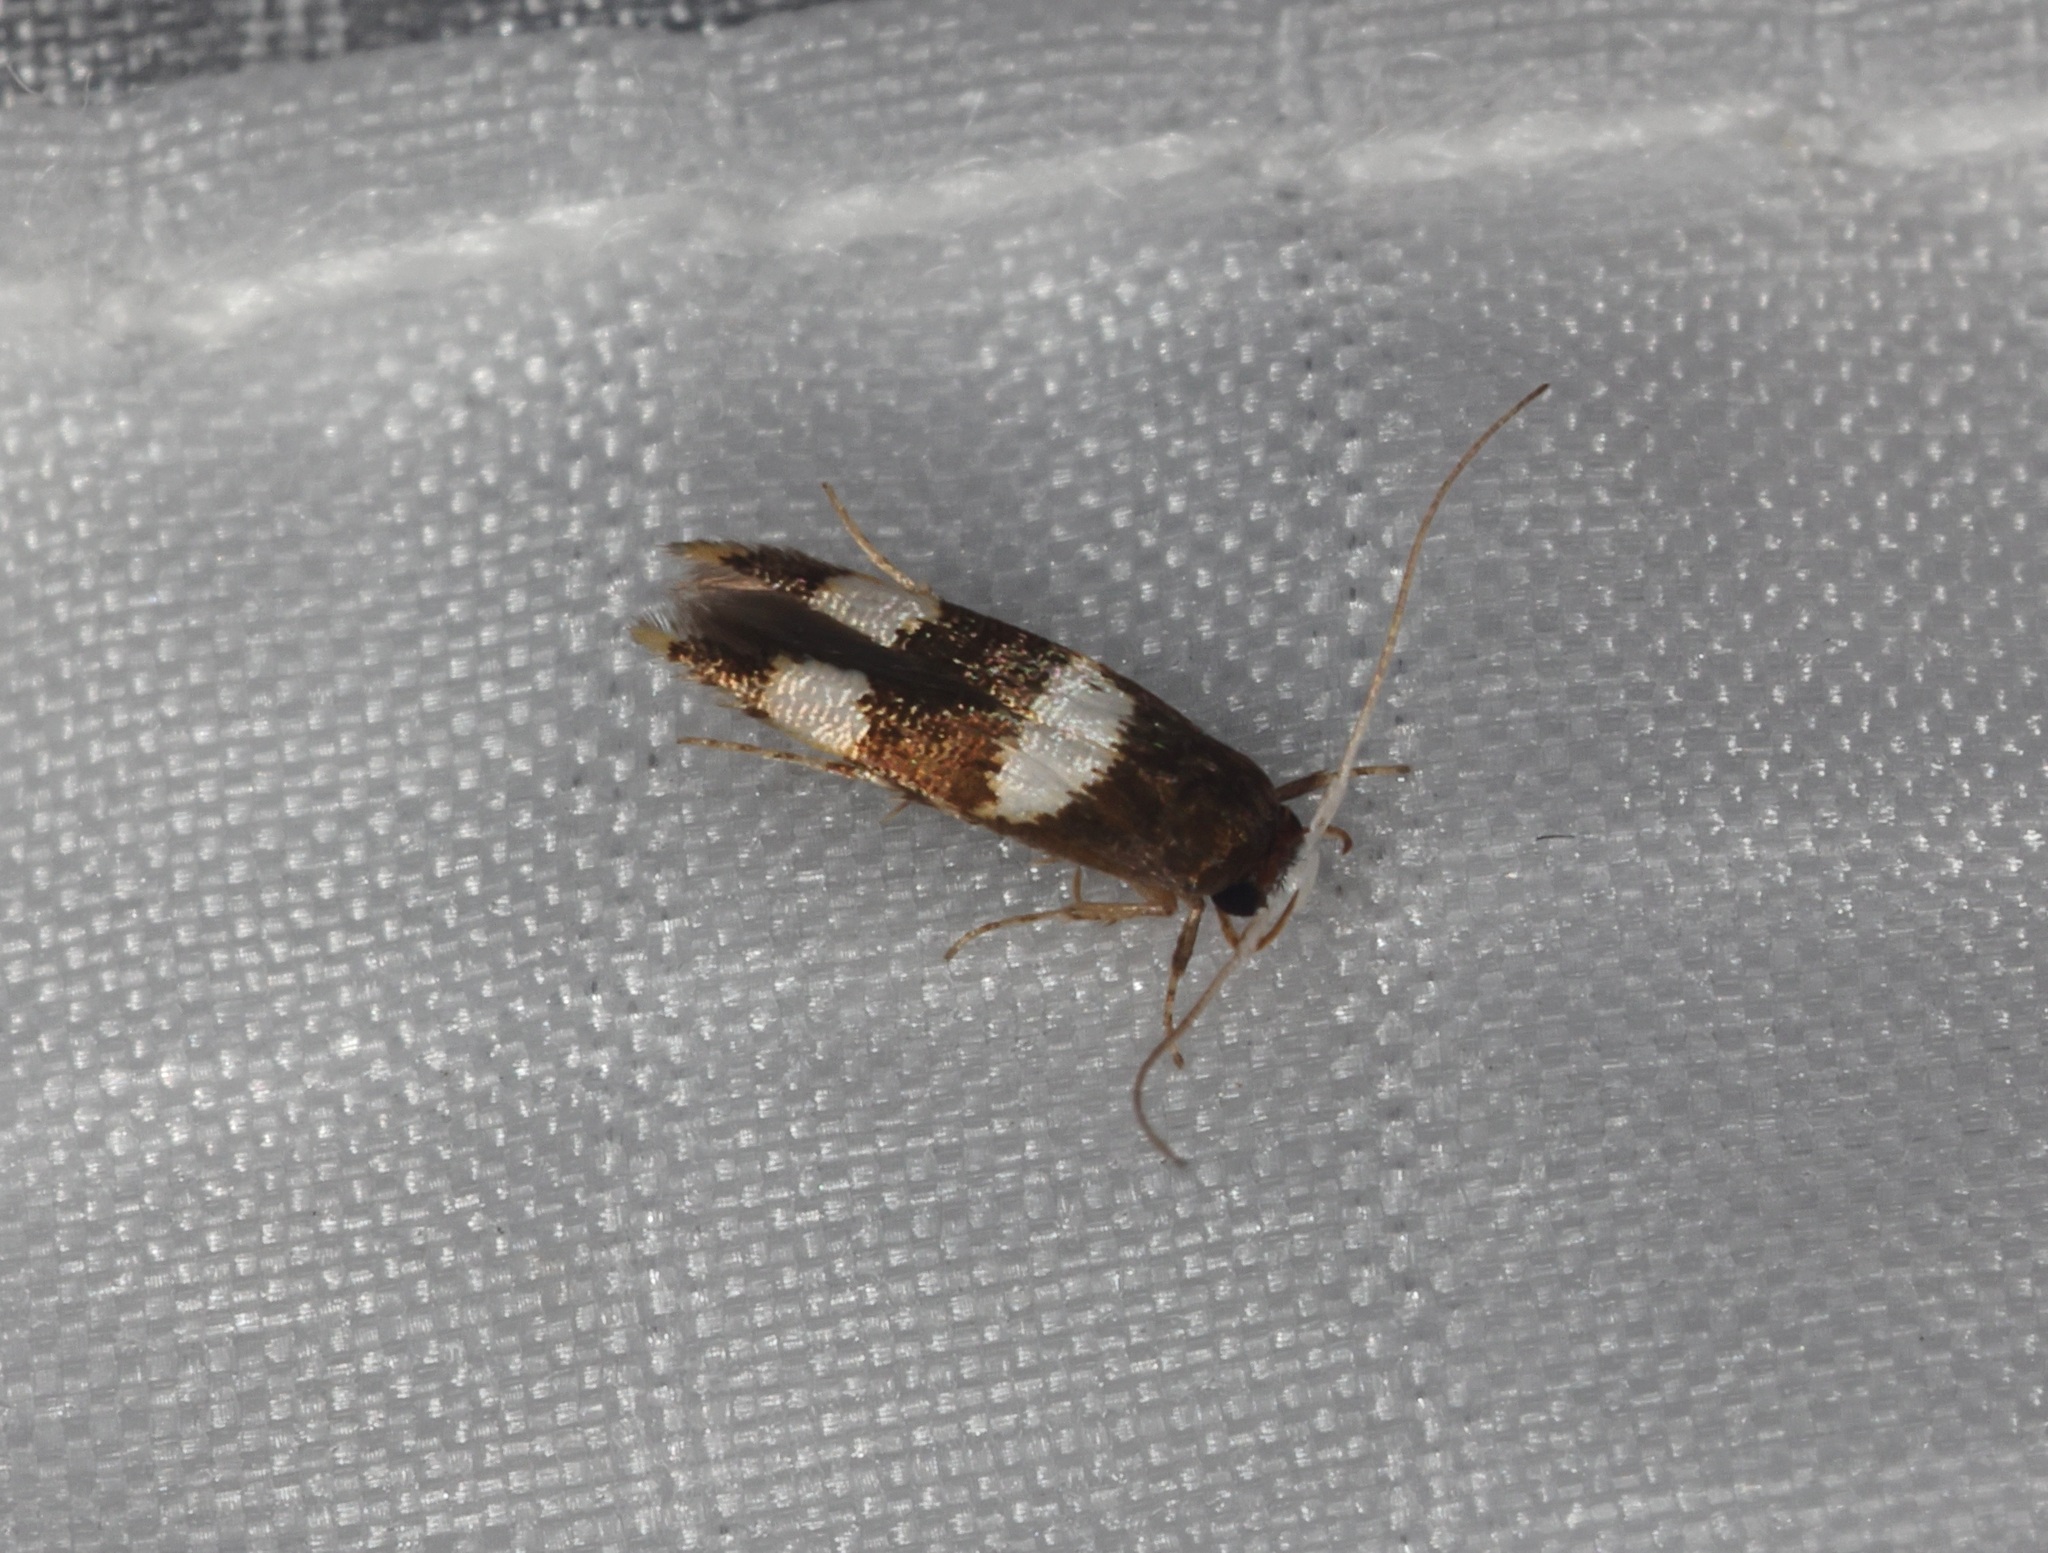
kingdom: Animalia
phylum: Arthropoda
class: Insecta
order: Lepidoptera
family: Stathmopodidae
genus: Stathmopoda
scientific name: Stathmopoda
